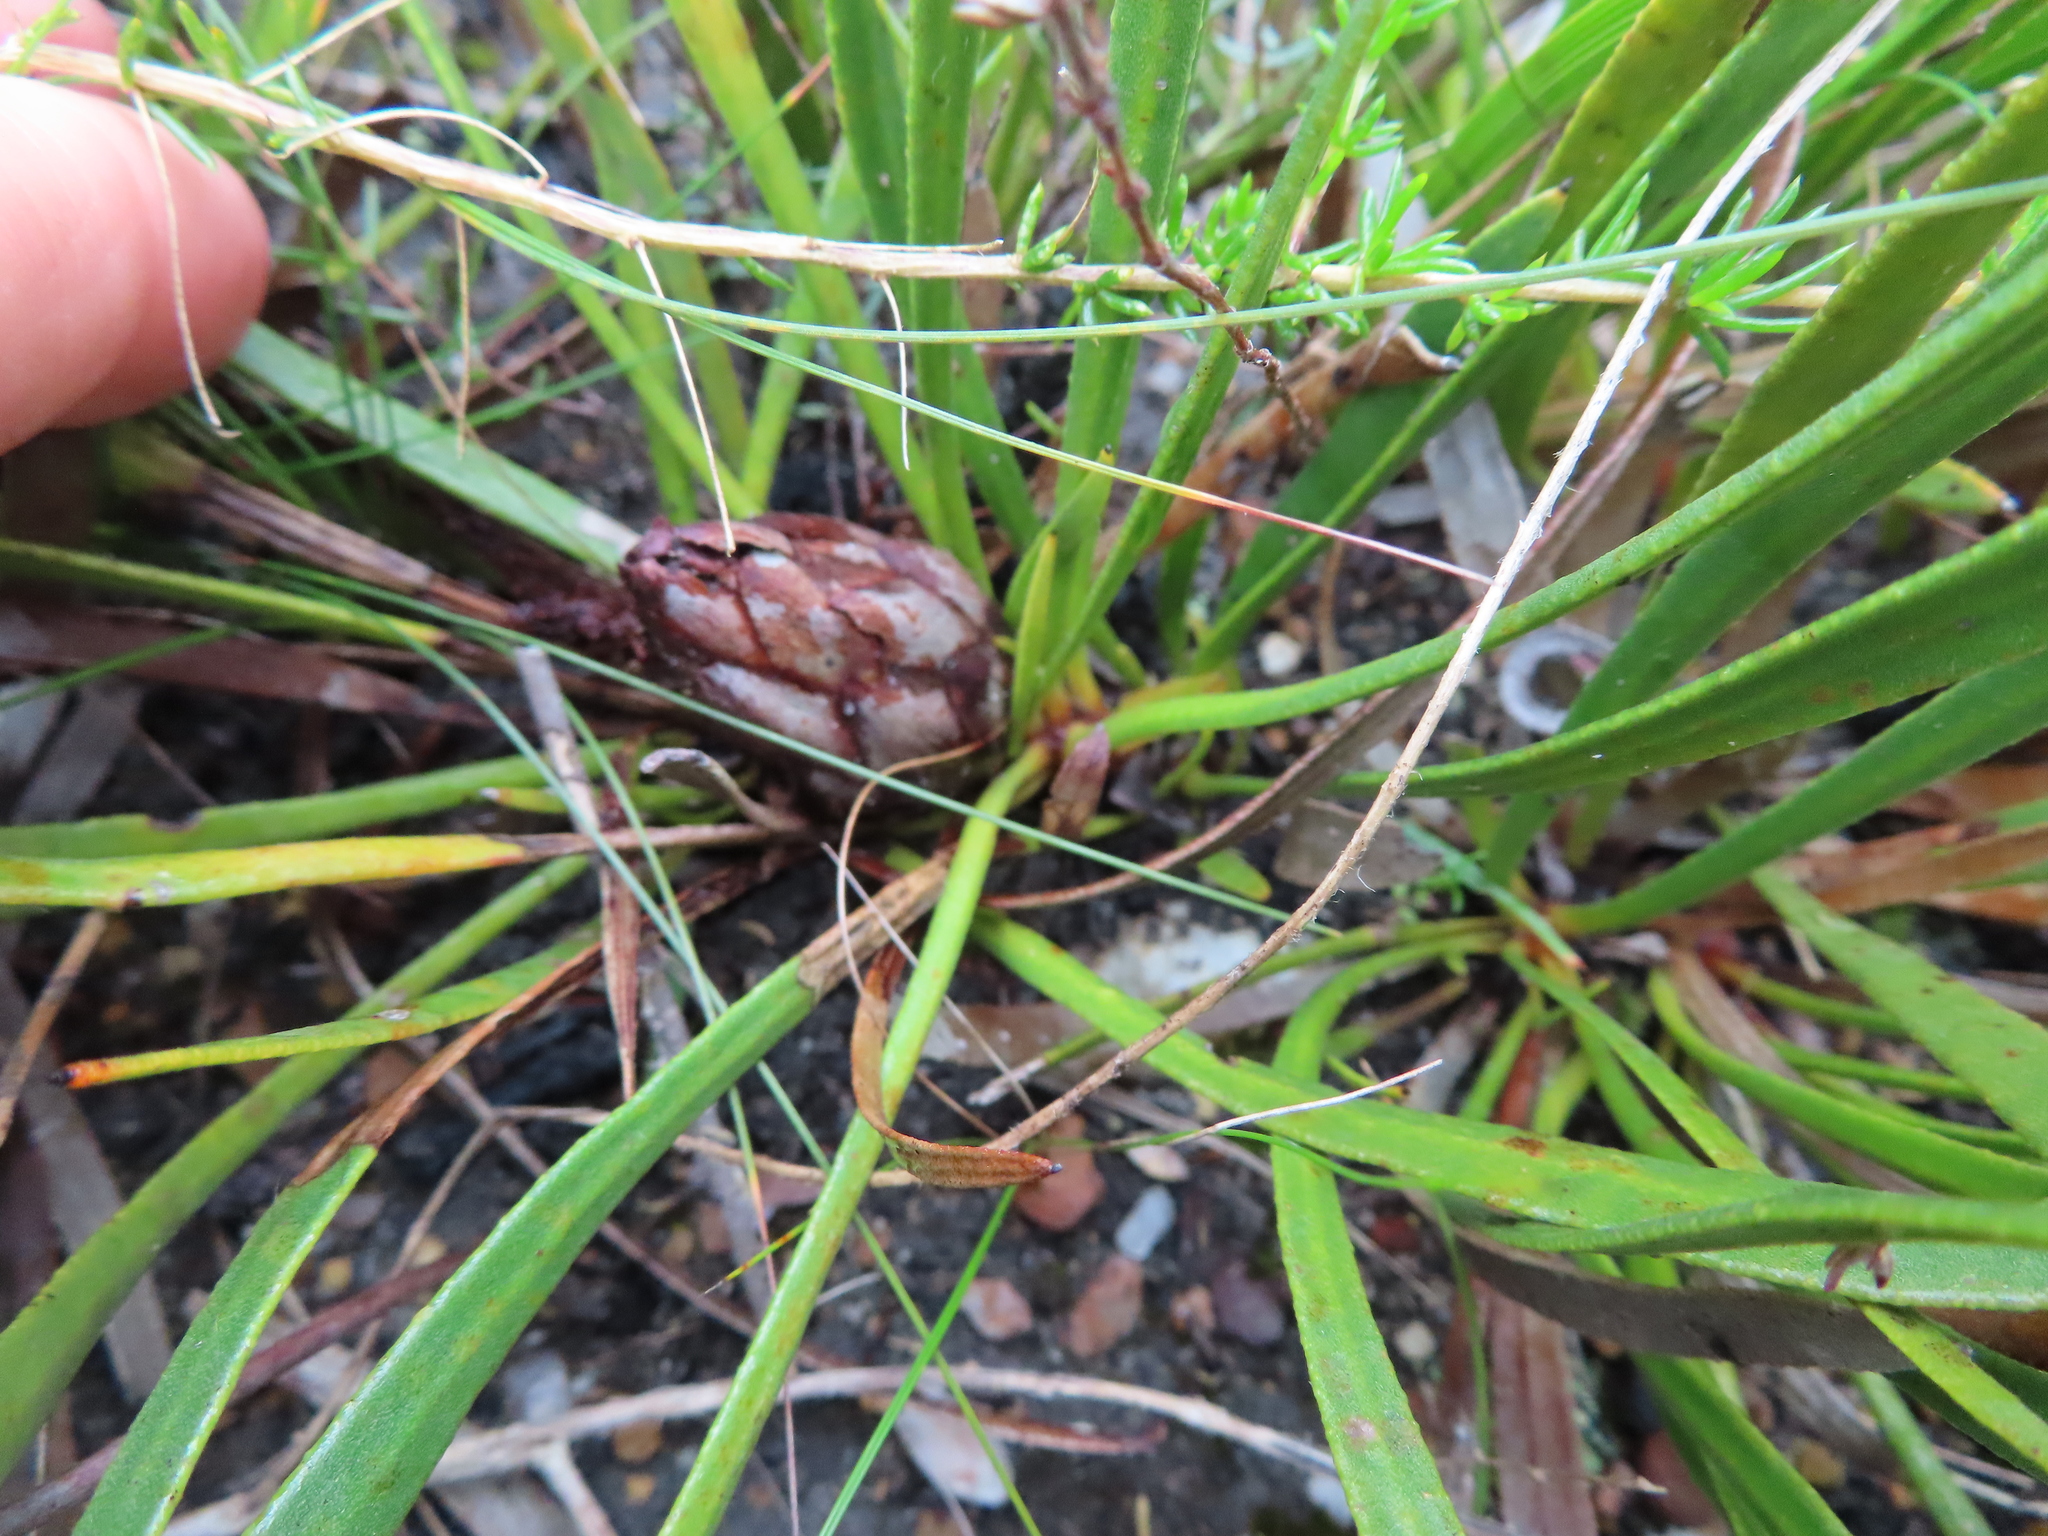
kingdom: Plantae
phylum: Tracheophyta
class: Magnoliopsida
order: Proteales
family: Proteaceae
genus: Protea
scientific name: Protea aspera
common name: Rough-leaf sugarbush
